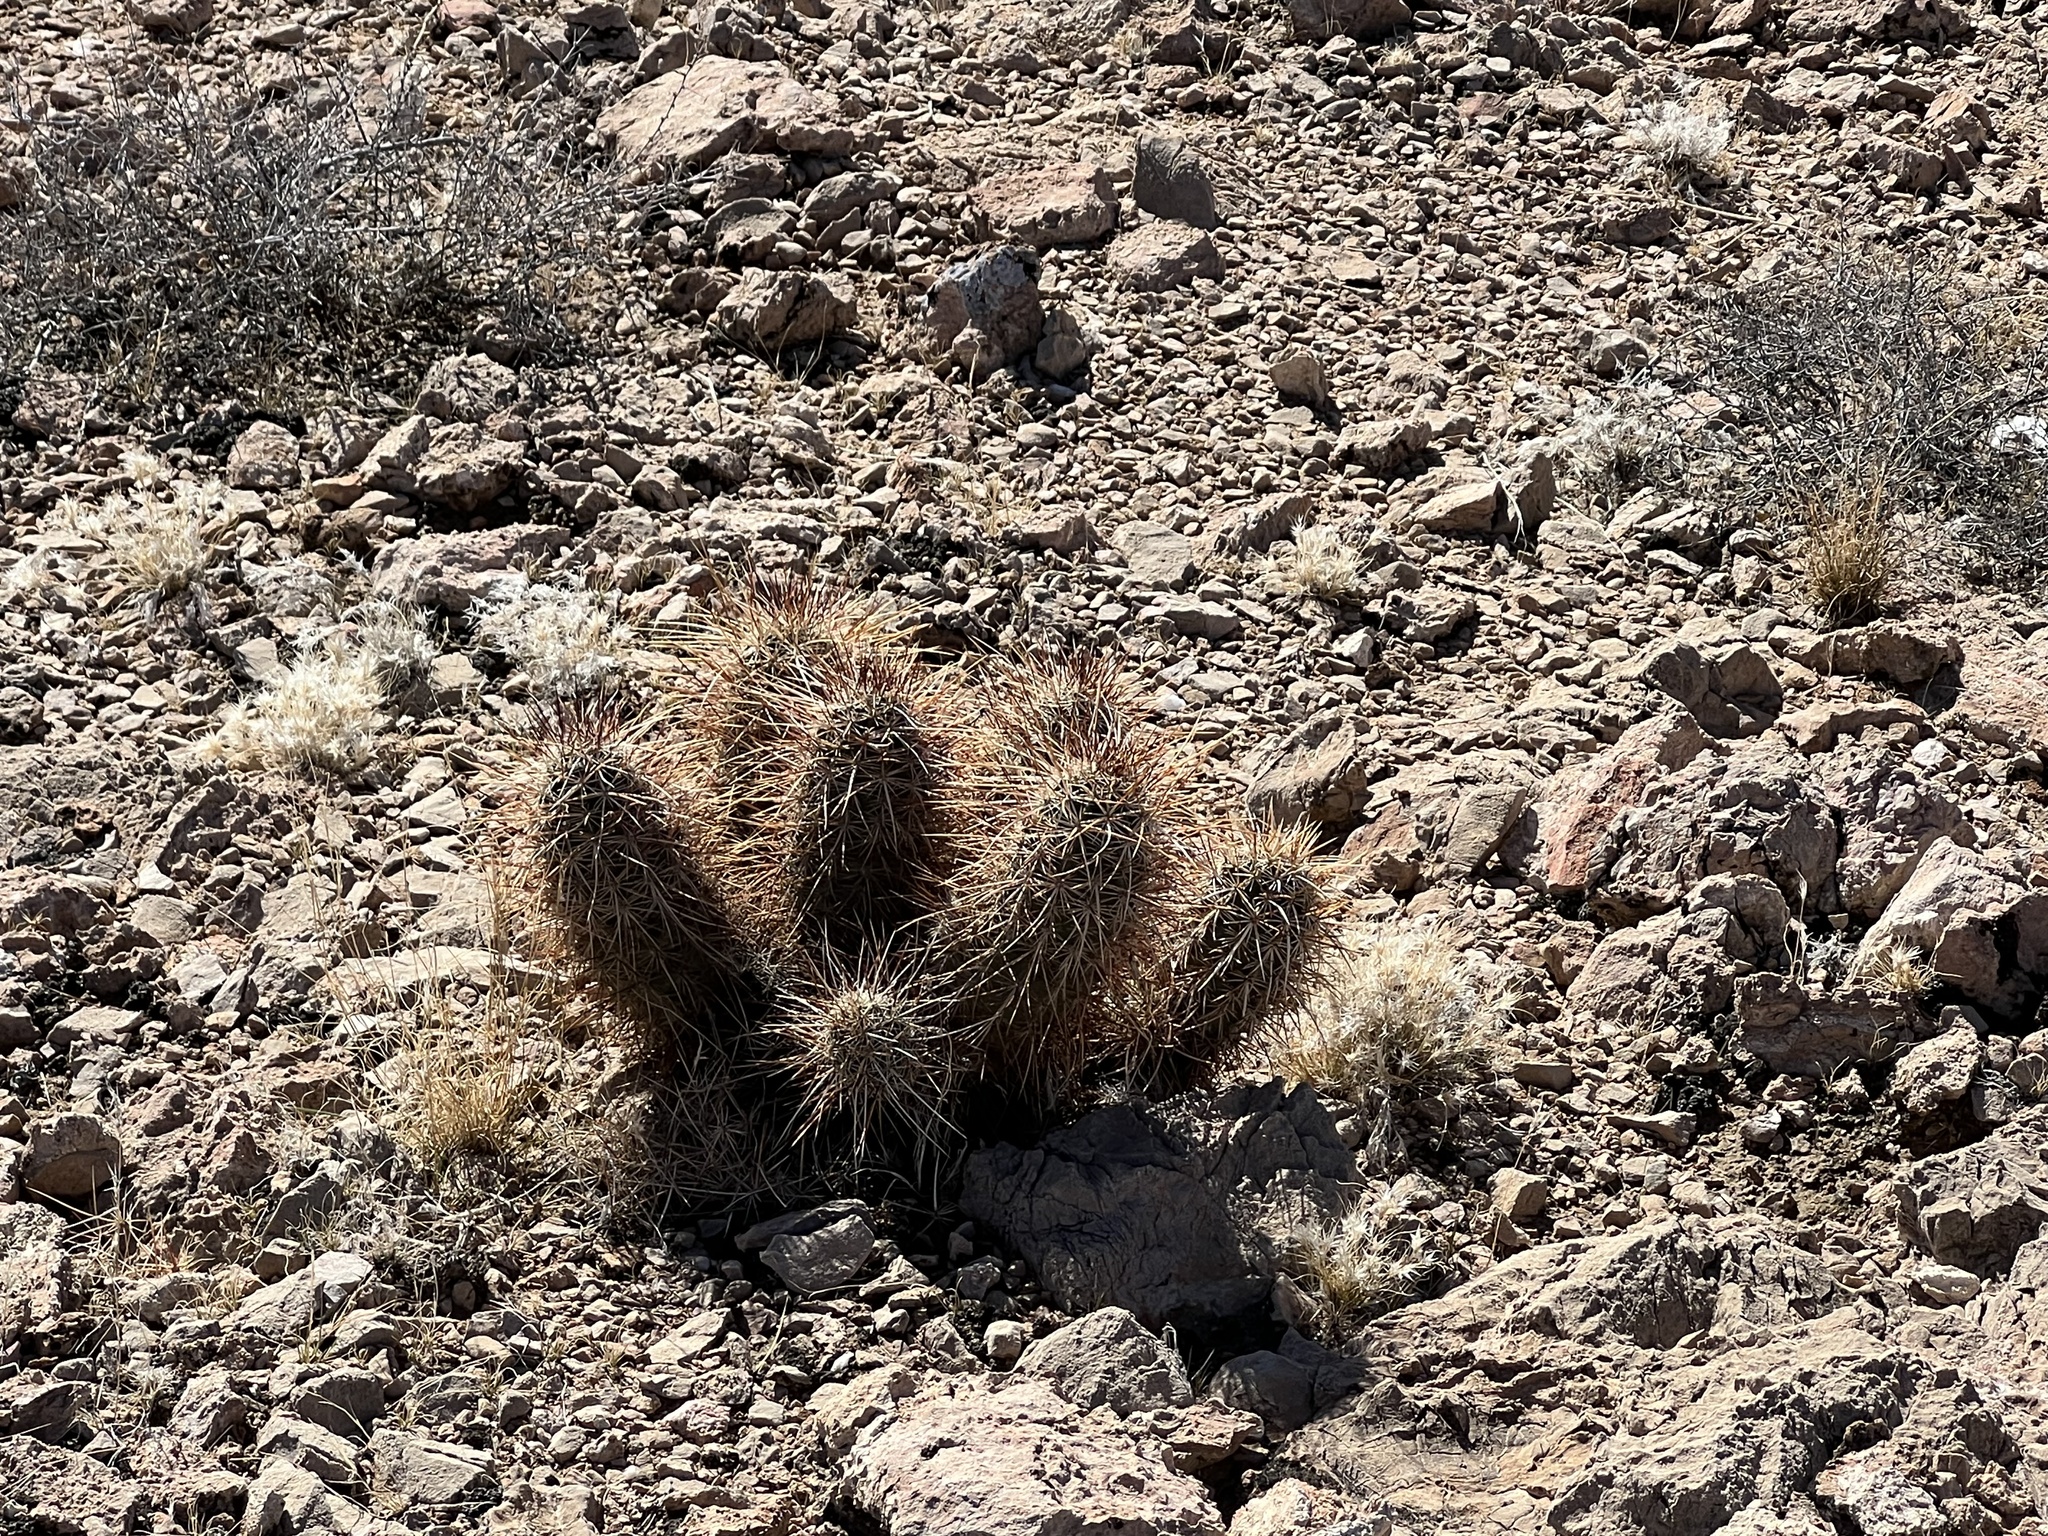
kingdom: Plantae
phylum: Tracheophyta
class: Magnoliopsida
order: Caryophyllales
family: Cactaceae
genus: Echinocereus
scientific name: Echinocereus engelmannii
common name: Engelmann's hedgehog cactus
